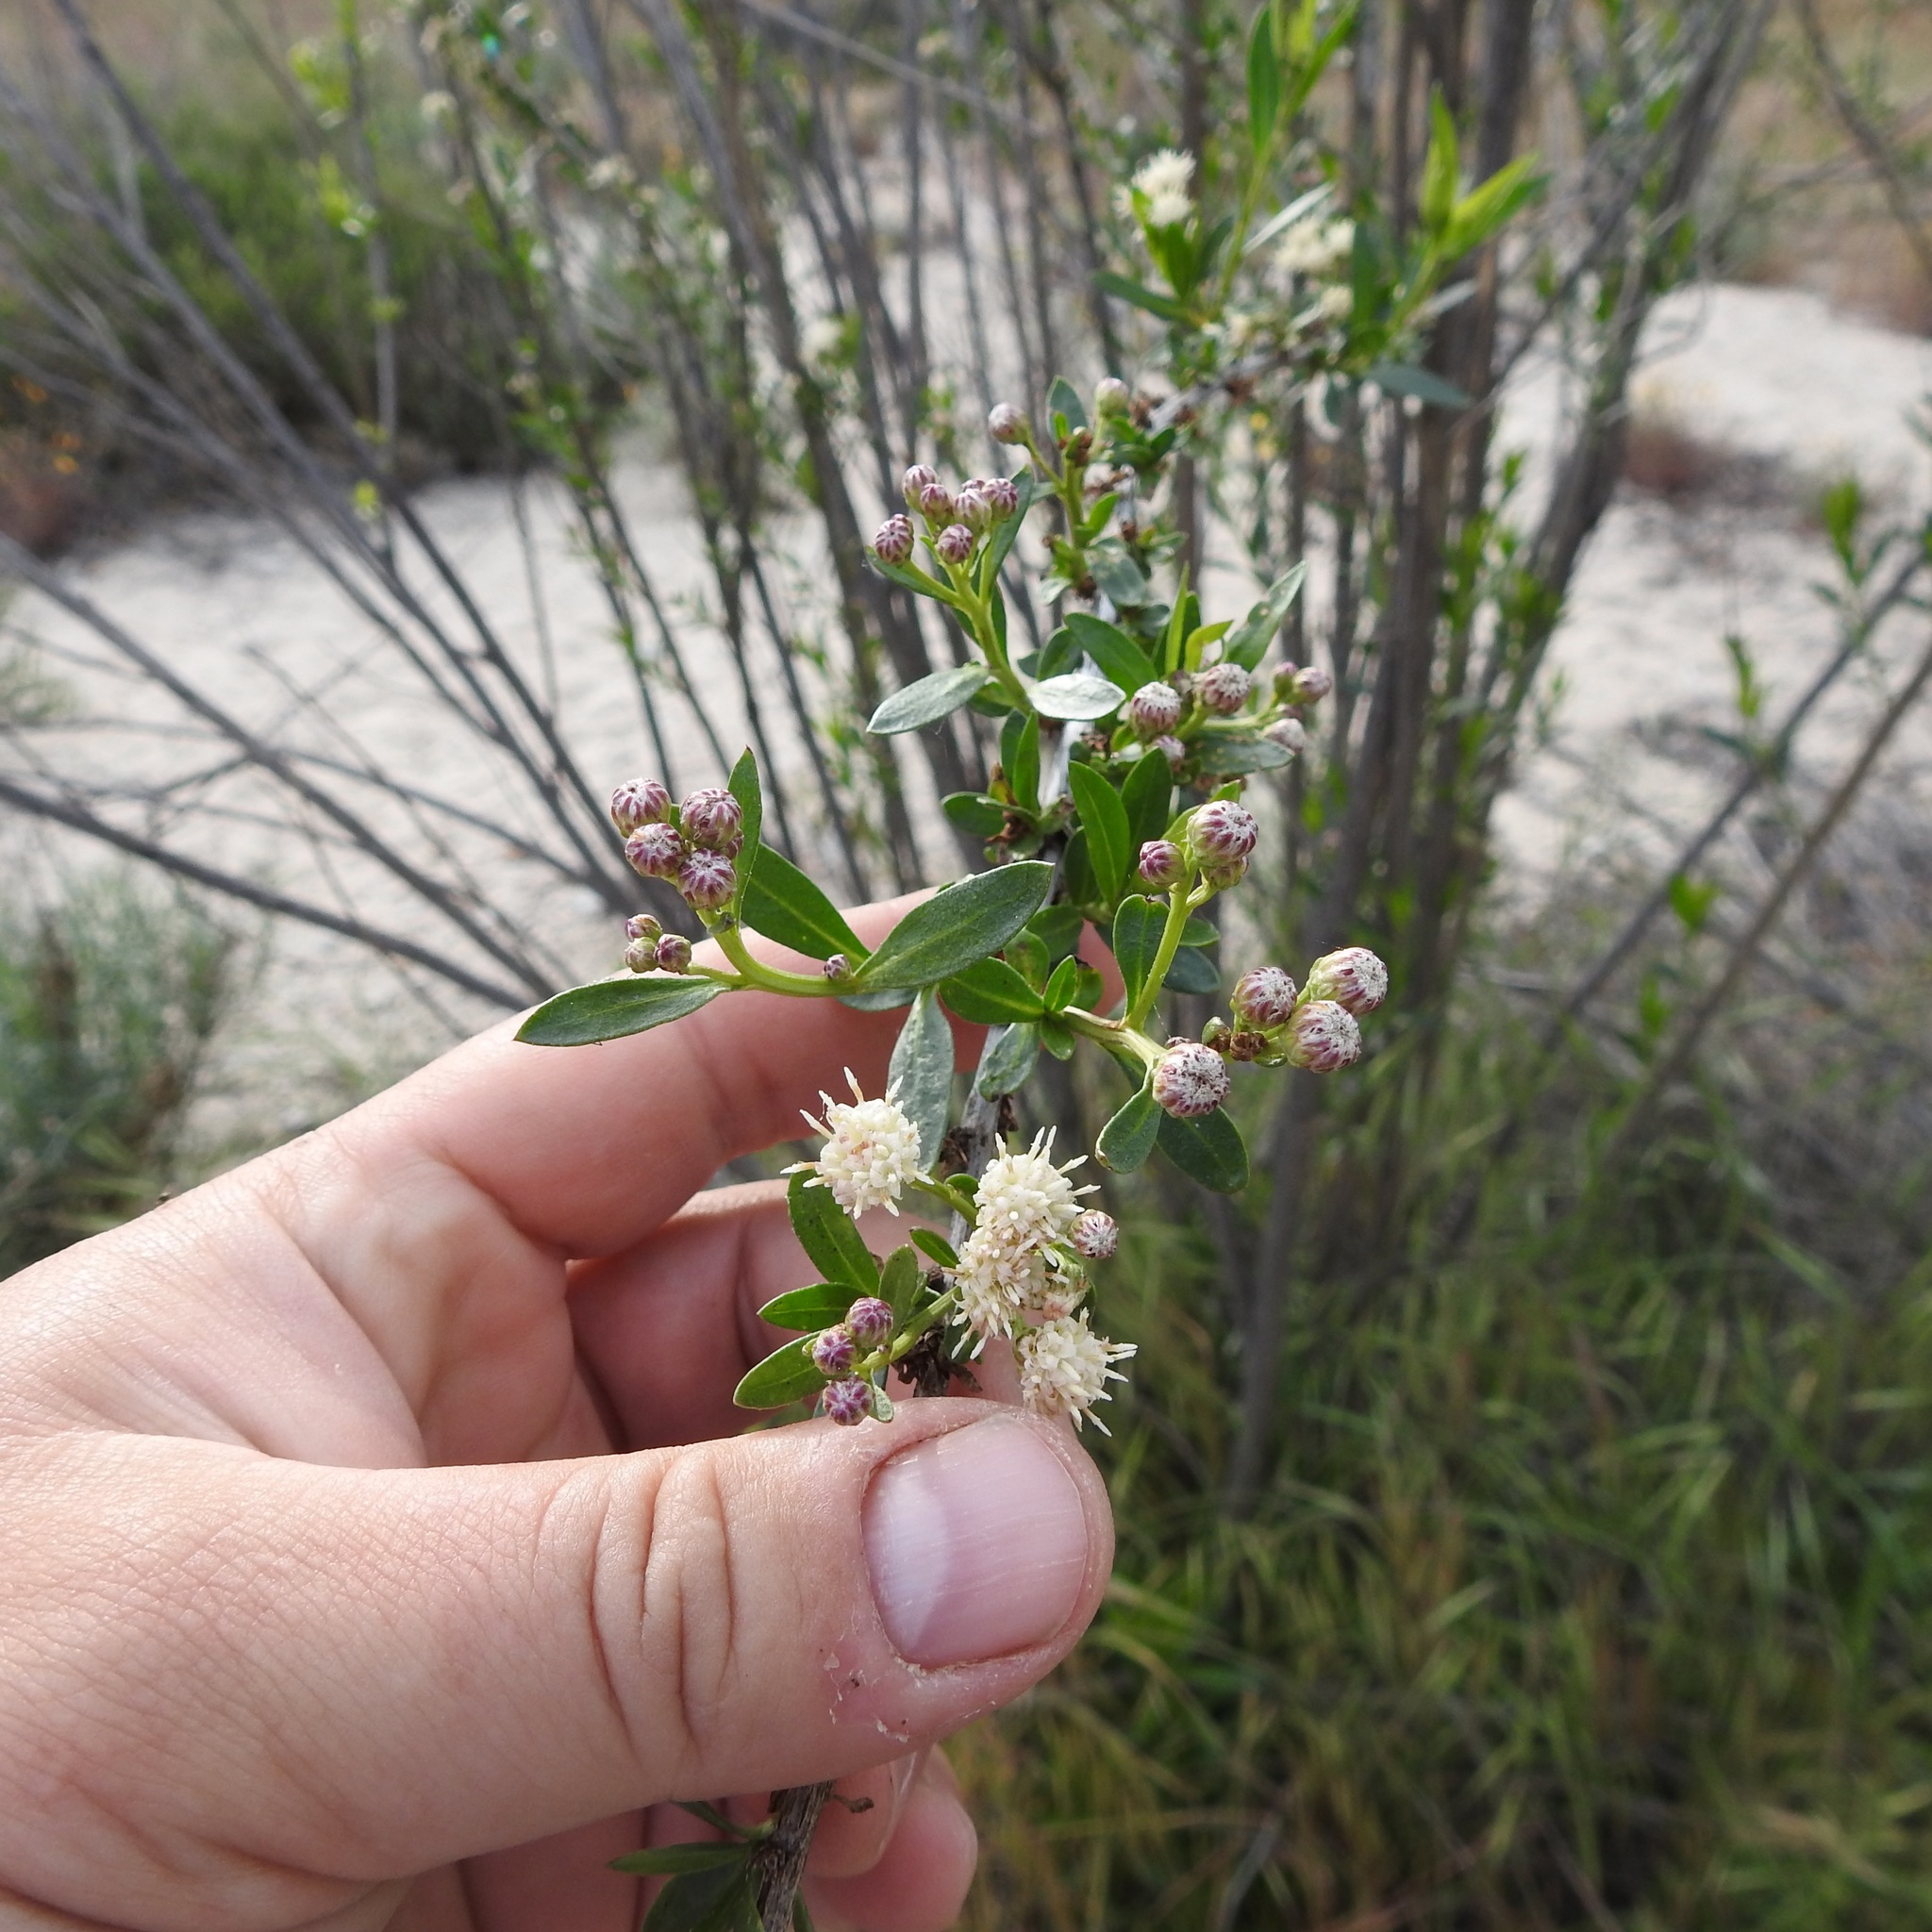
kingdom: Plantae
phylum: Tracheophyta
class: Magnoliopsida
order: Asterales
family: Asteraceae
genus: Baccharis
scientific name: Baccharis salicifolia
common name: Sticky baccharis
